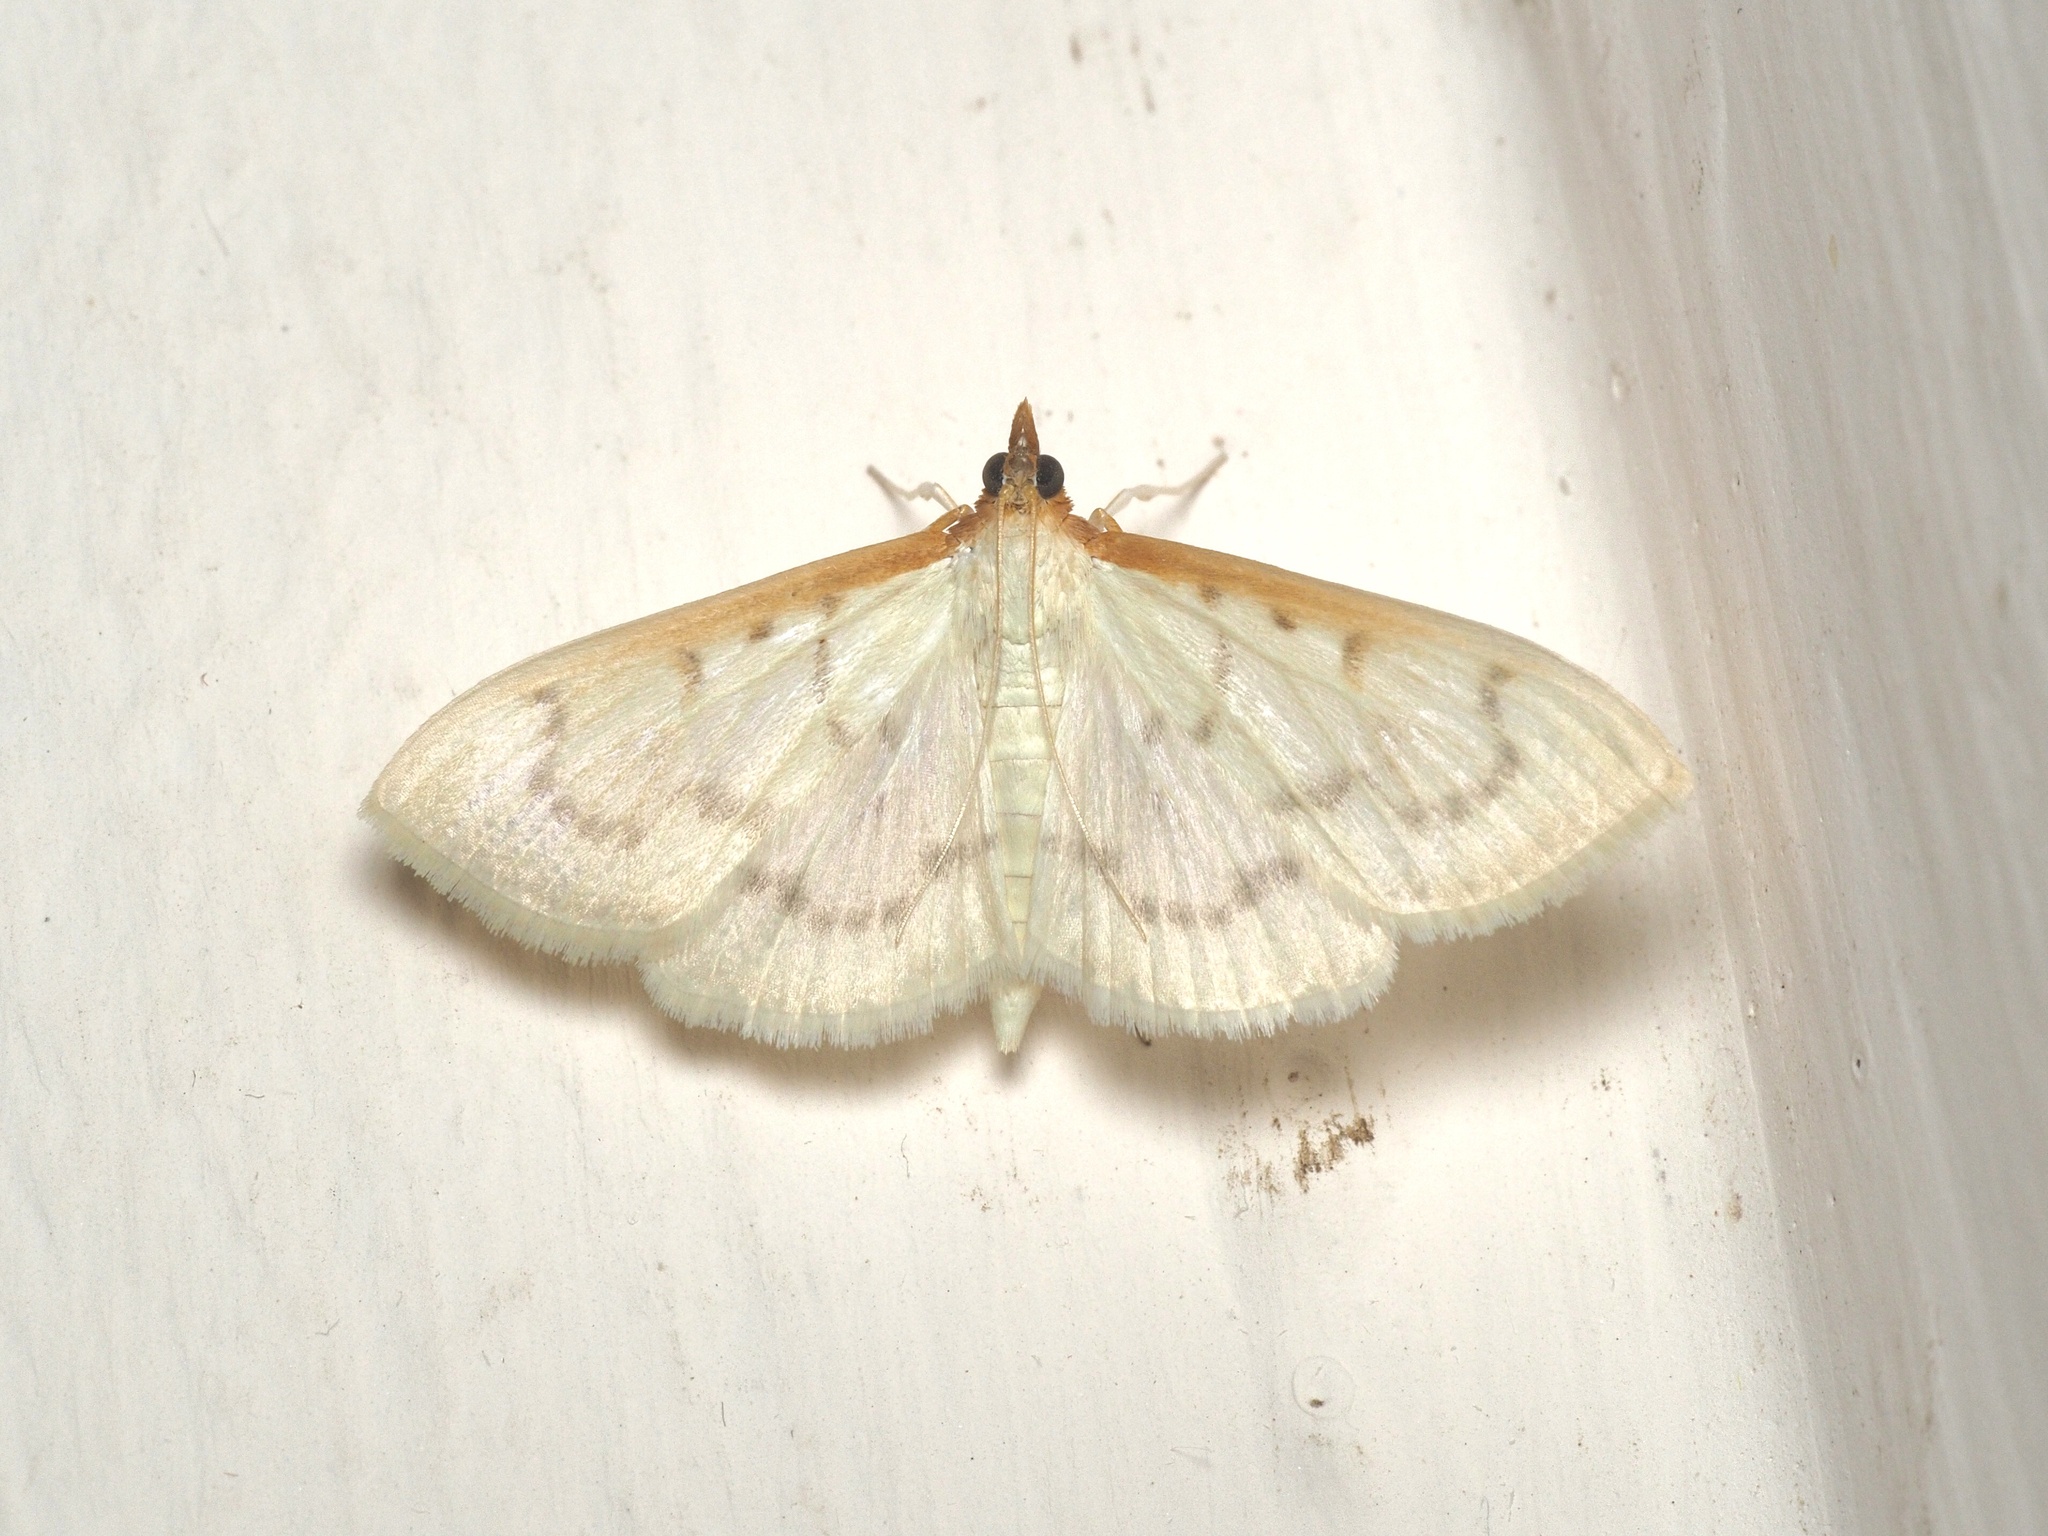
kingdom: Animalia
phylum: Arthropoda
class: Insecta
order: Lepidoptera
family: Crambidae
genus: Pyrausta
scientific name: Pyrausta testalis
